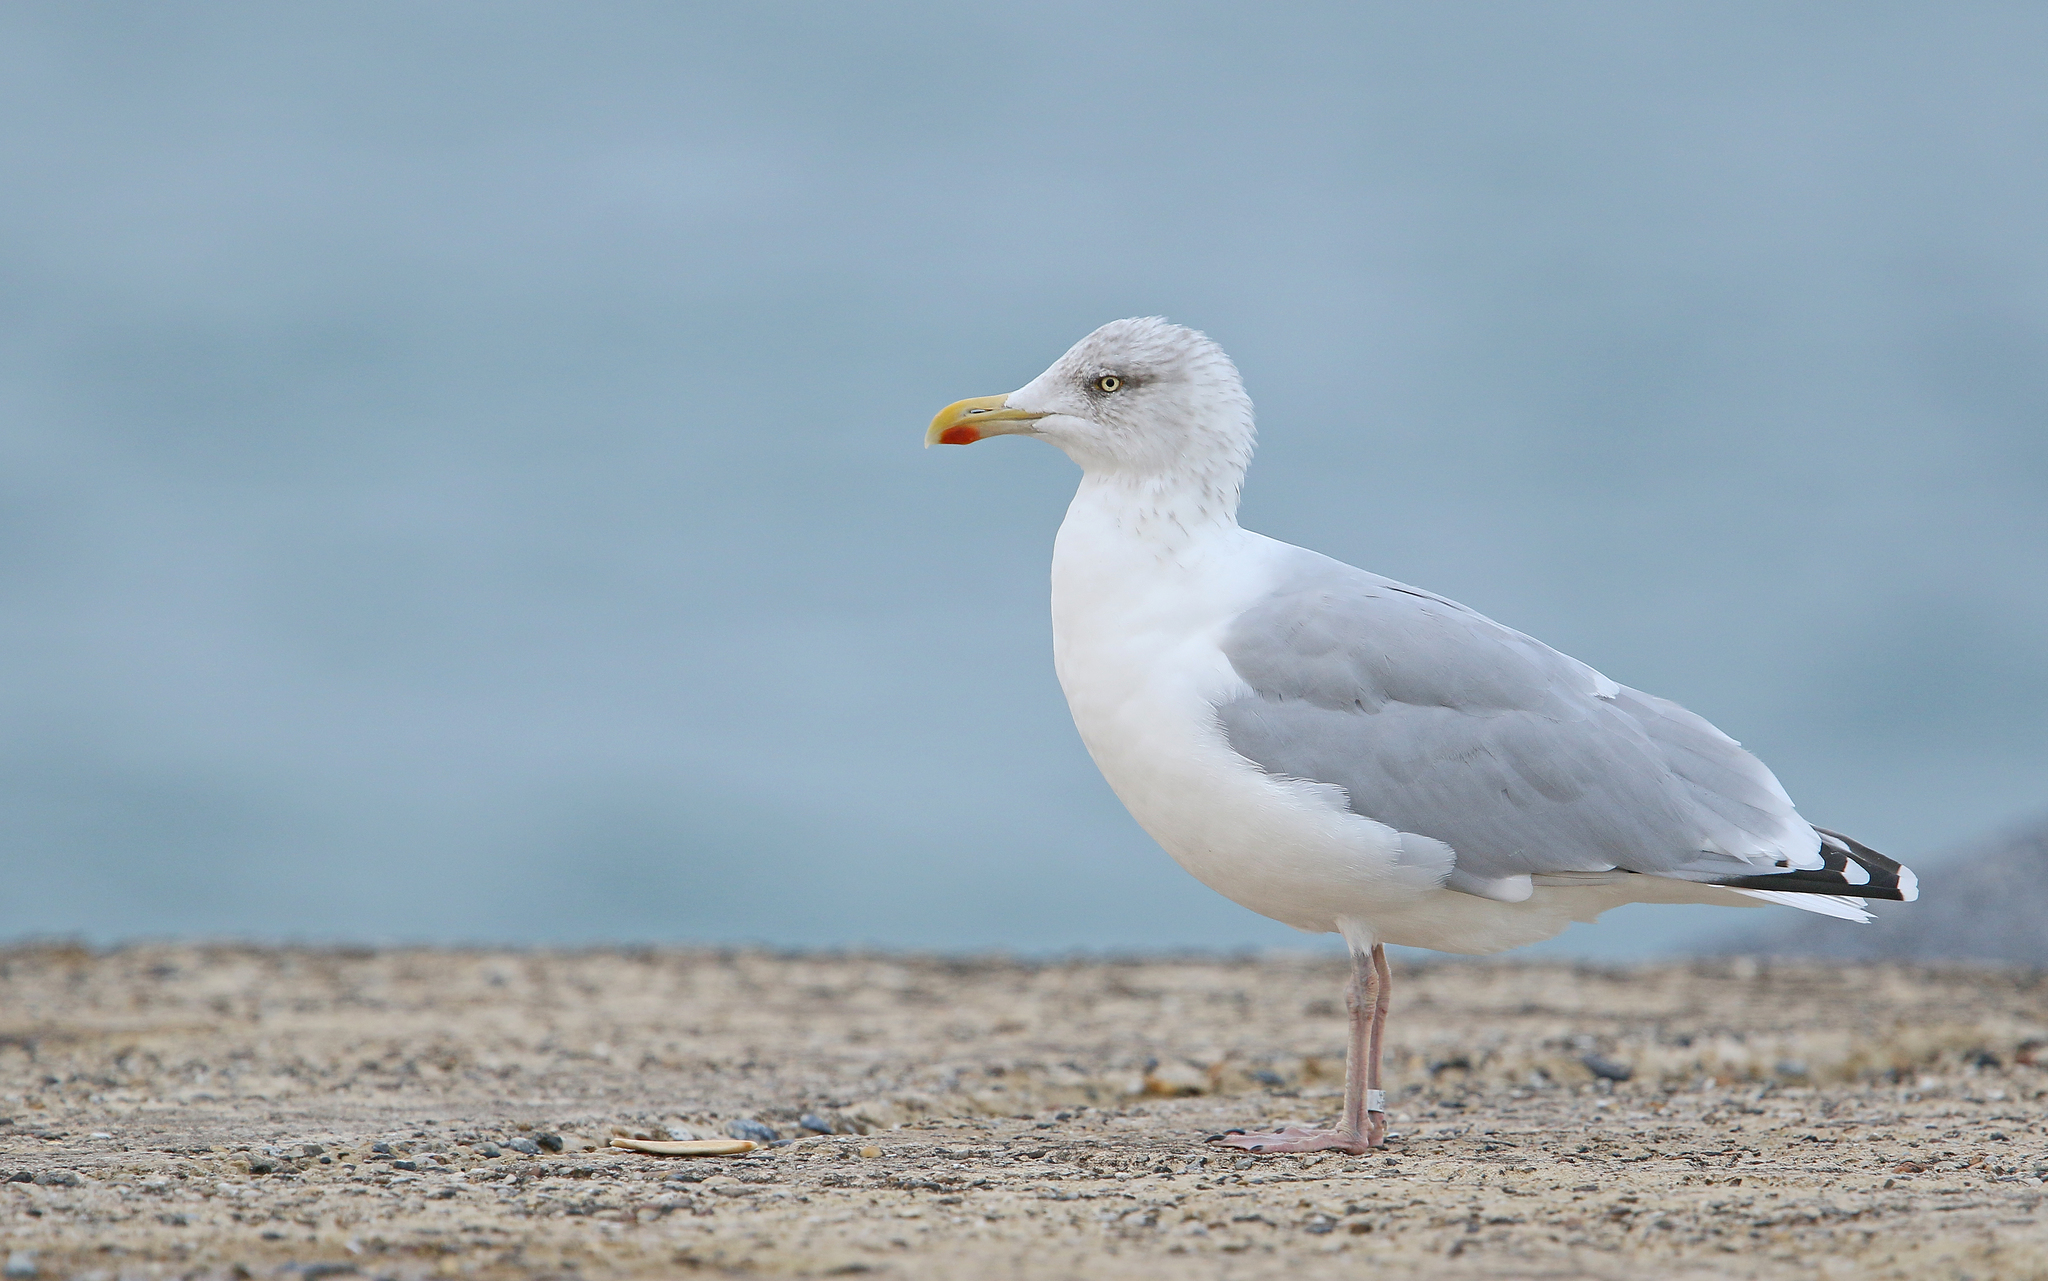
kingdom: Animalia
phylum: Chordata
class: Aves
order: Charadriiformes
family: Laridae
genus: Larus
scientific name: Larus argentatus
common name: Herring gull
